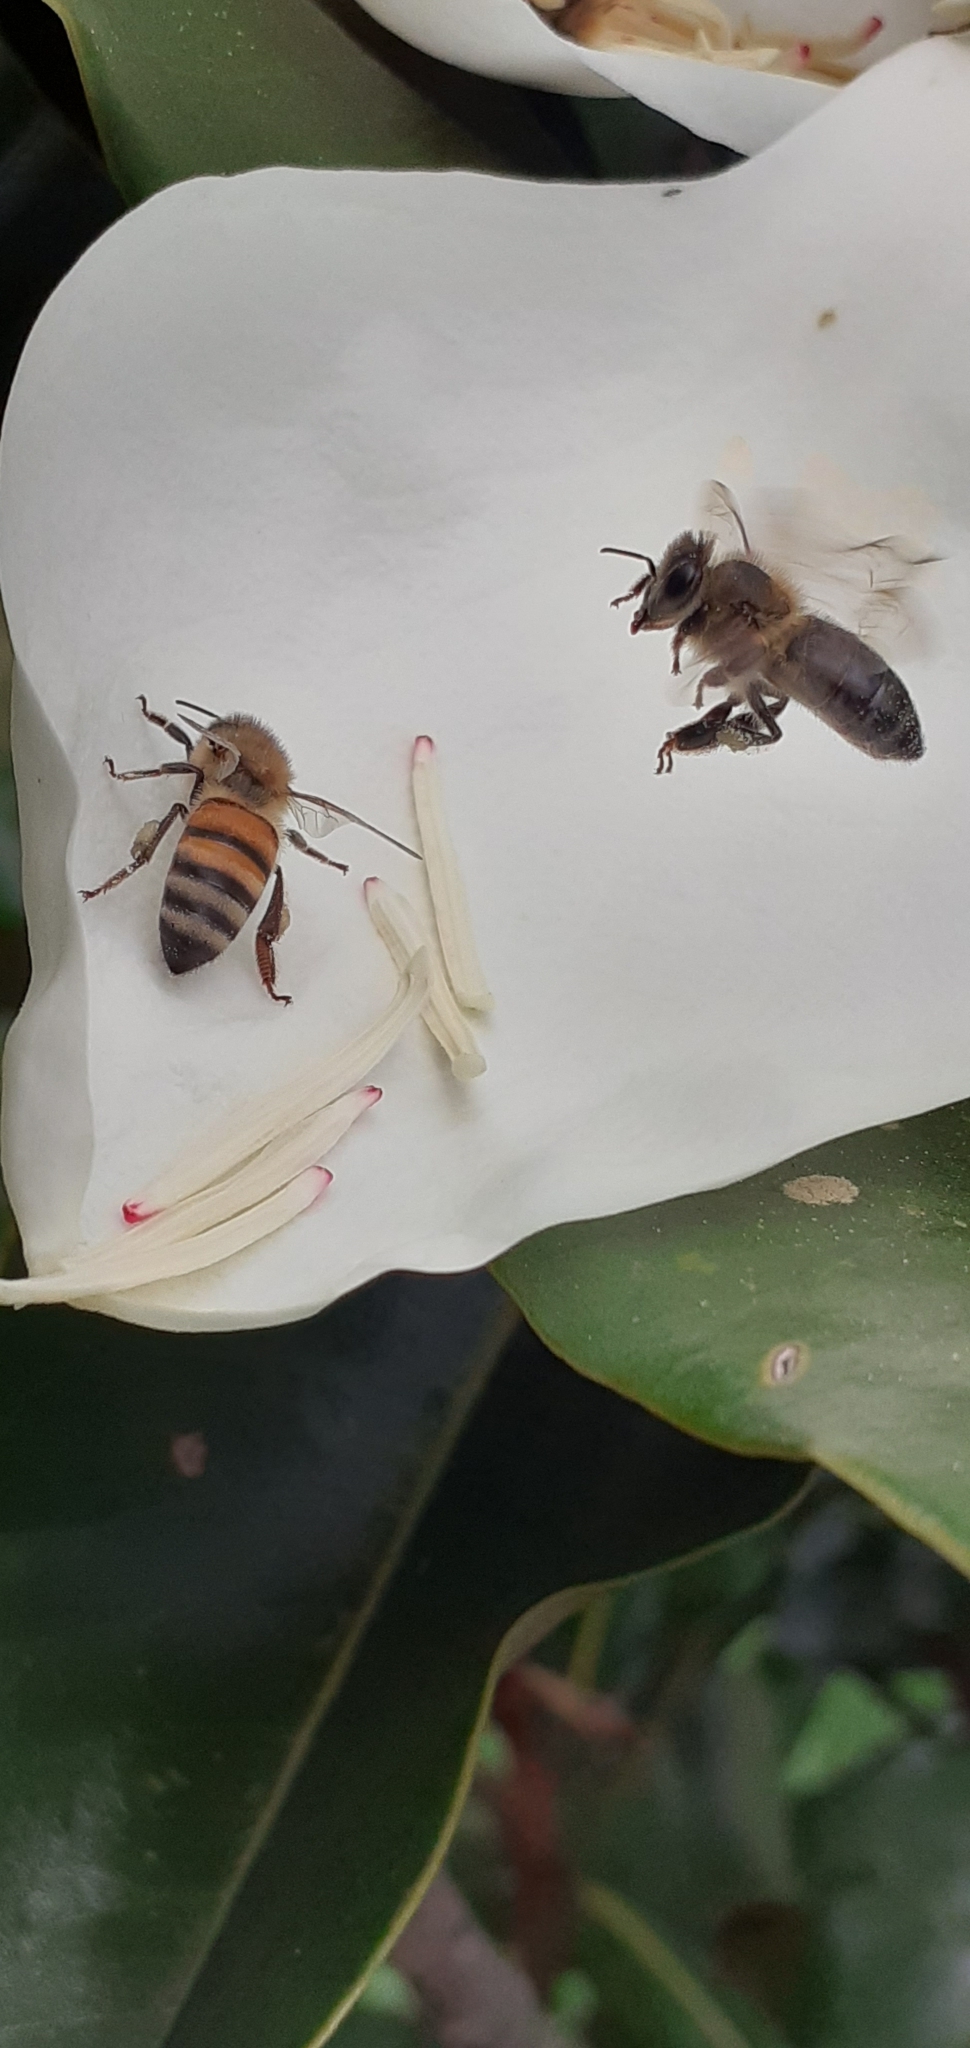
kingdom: Animalia
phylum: Arthropoda
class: Insecta
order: Hymenoptera
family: Apidae
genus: Apis
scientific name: Apis mellifera
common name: Honey bee
